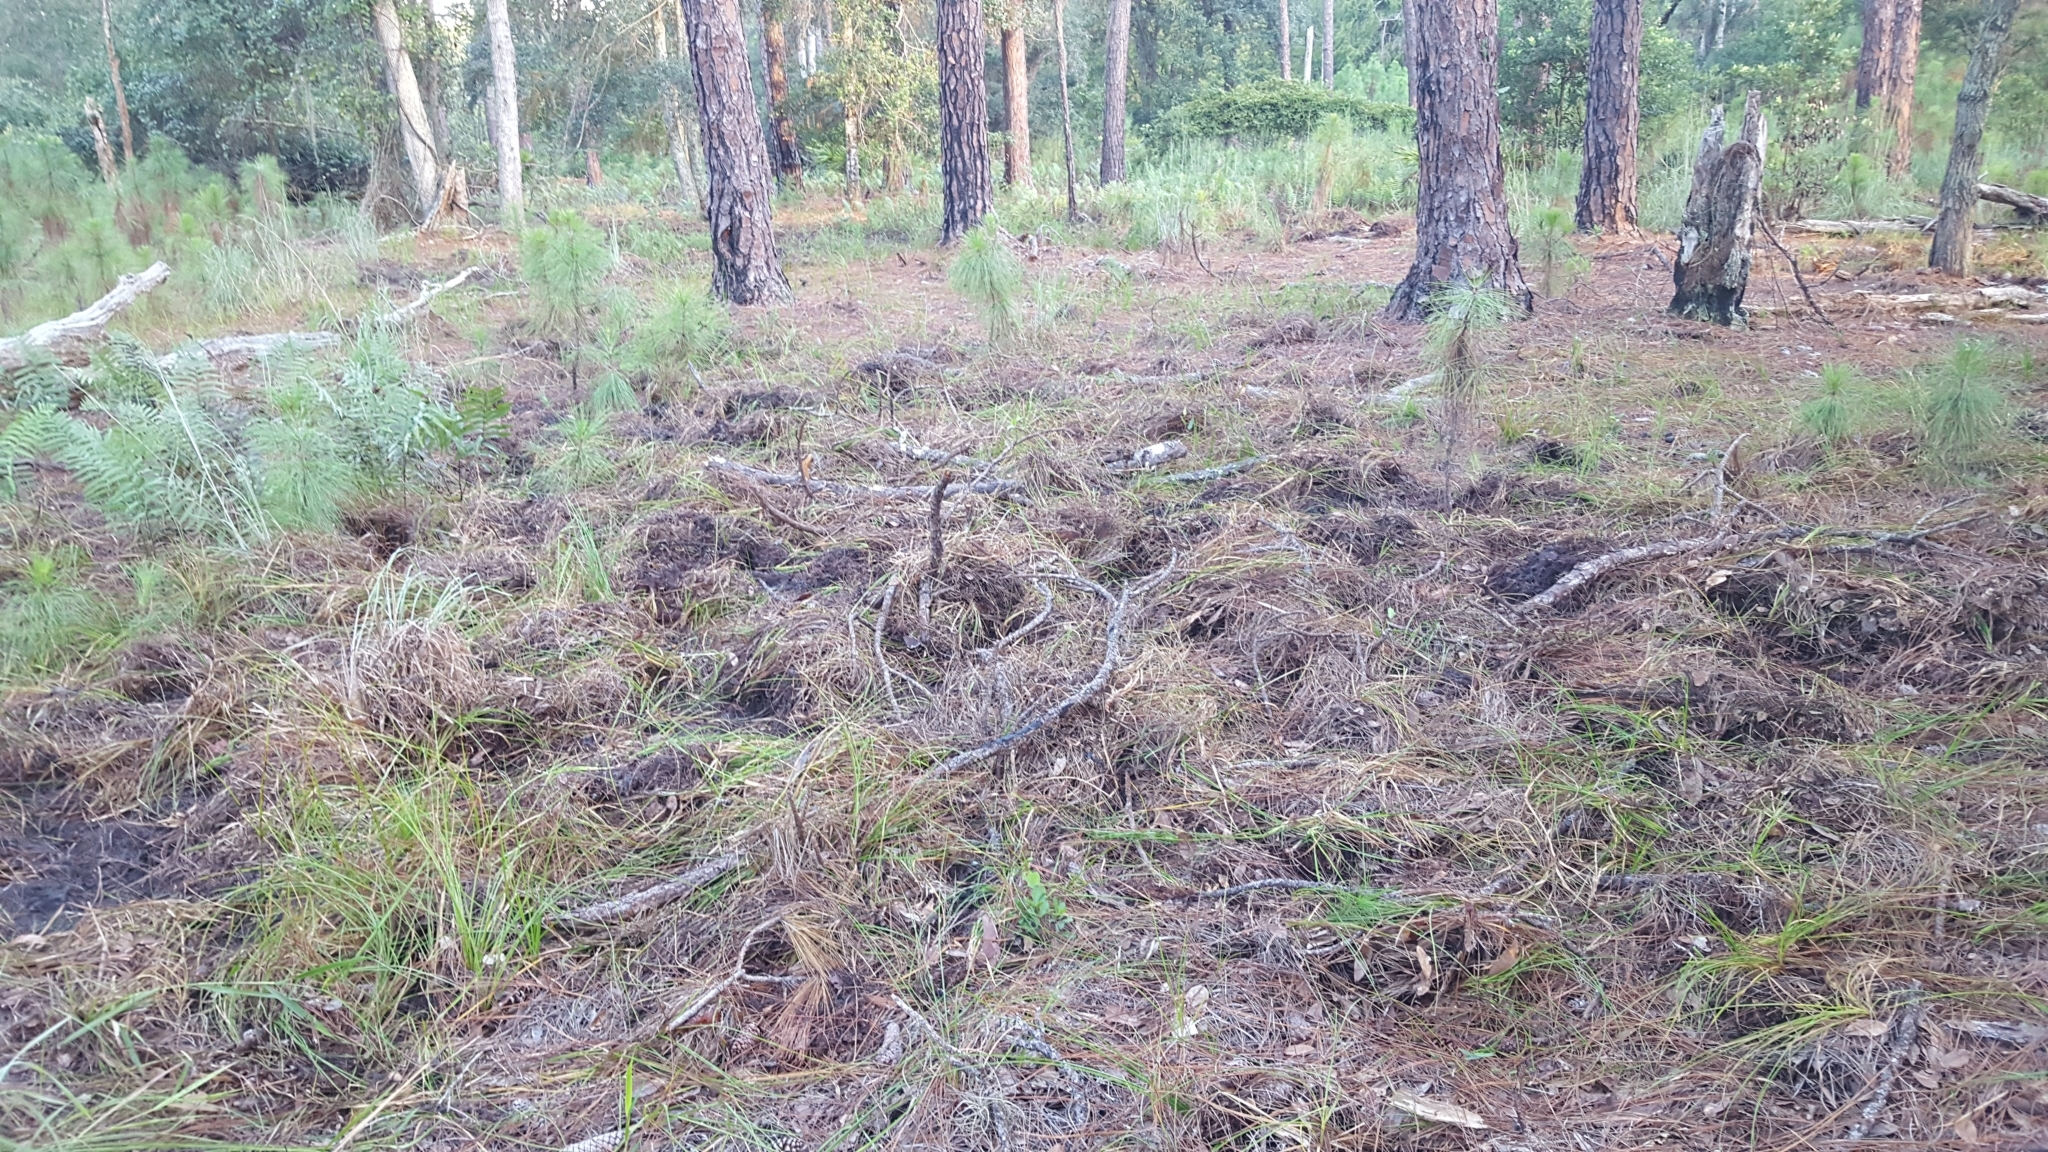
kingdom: Animalia
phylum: Chordata
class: Mammalia
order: Artiodactyla
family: Suidae
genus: Sus
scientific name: Sus scrofa
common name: Wild boar
